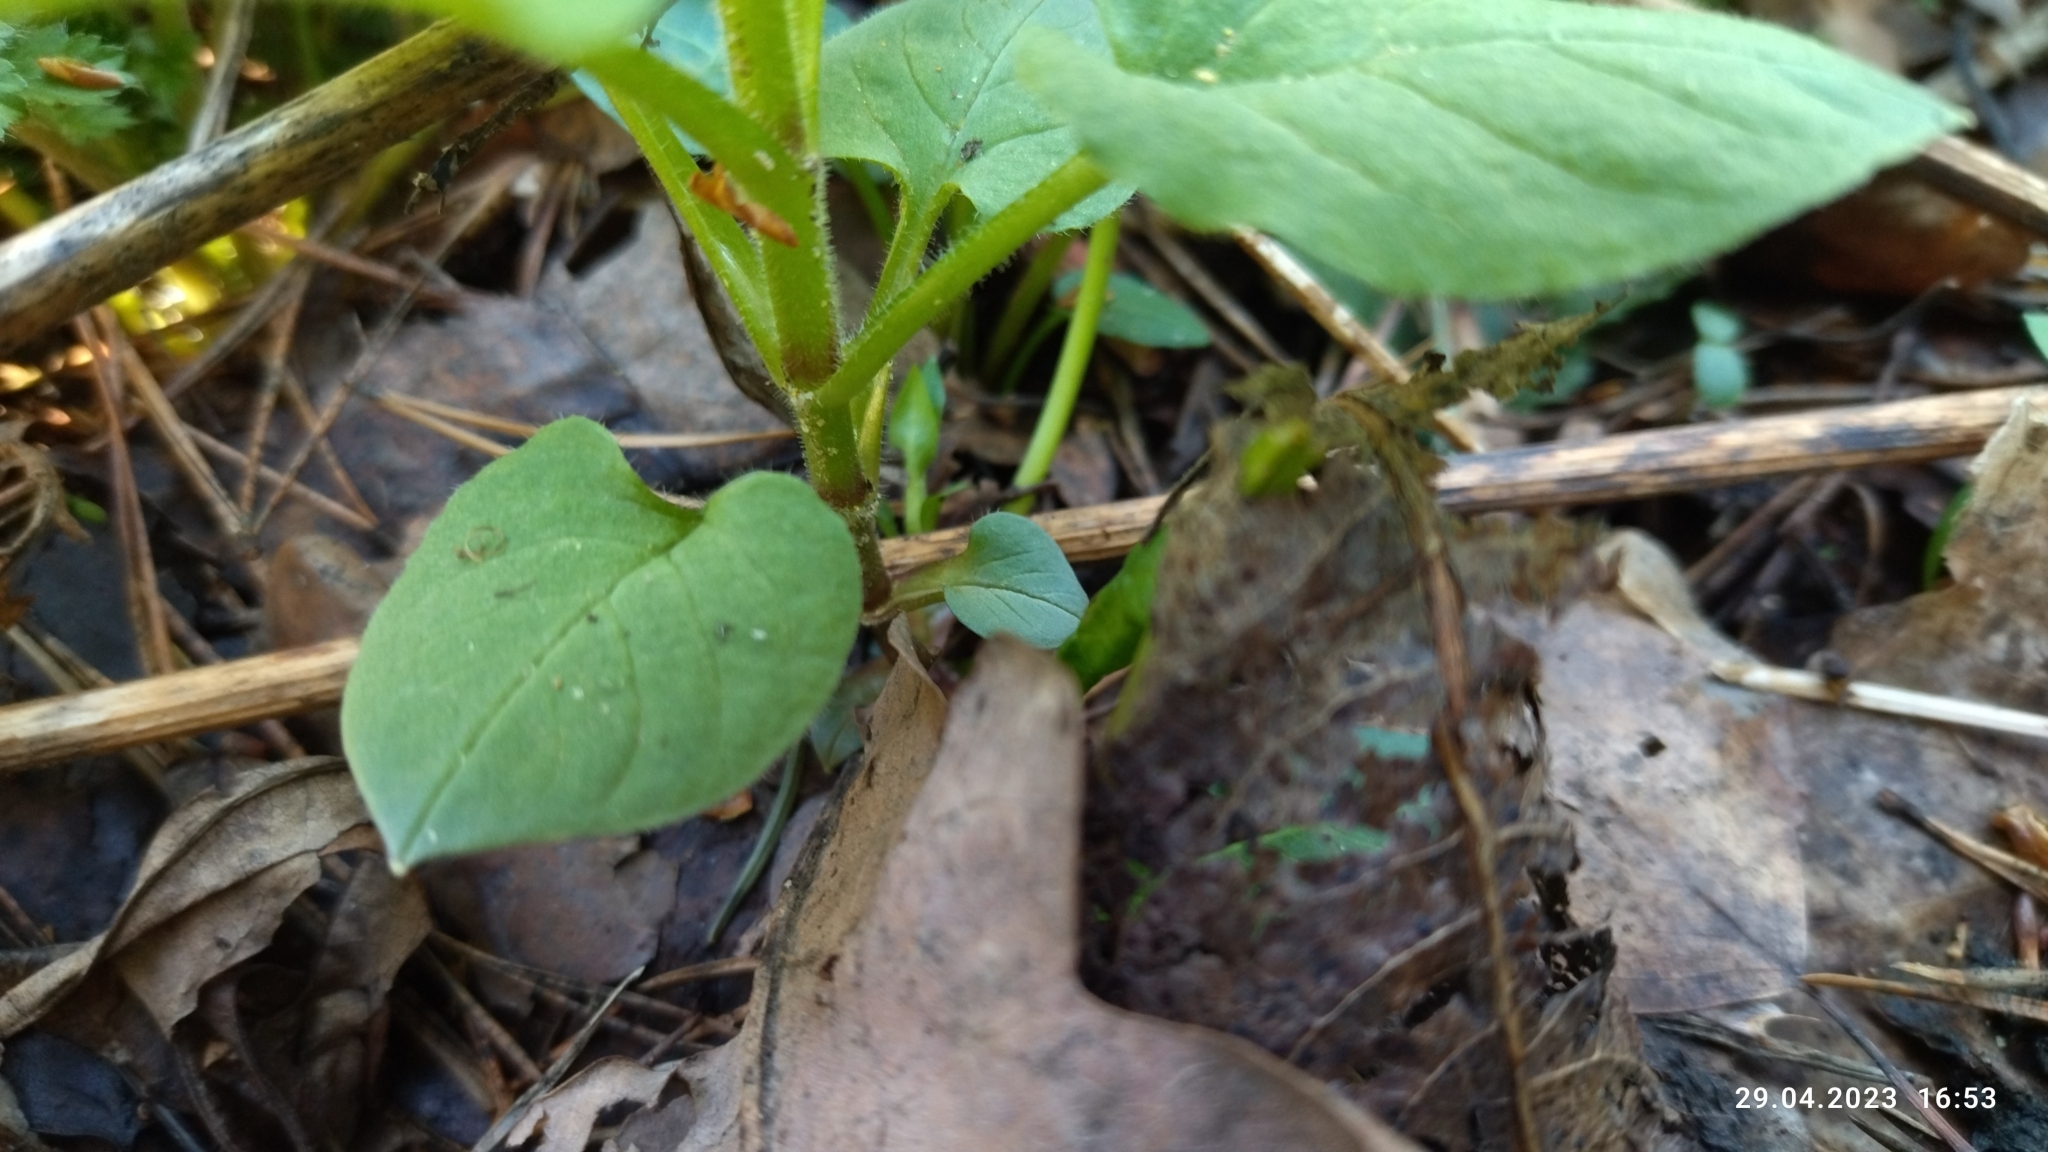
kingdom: Plantae
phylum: Tracheophyta
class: Magnoliopsida
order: Caryophyllales
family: Caryophyllaceae
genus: Stellaria
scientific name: Stellaria nemorum
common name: Wood stitchwort
